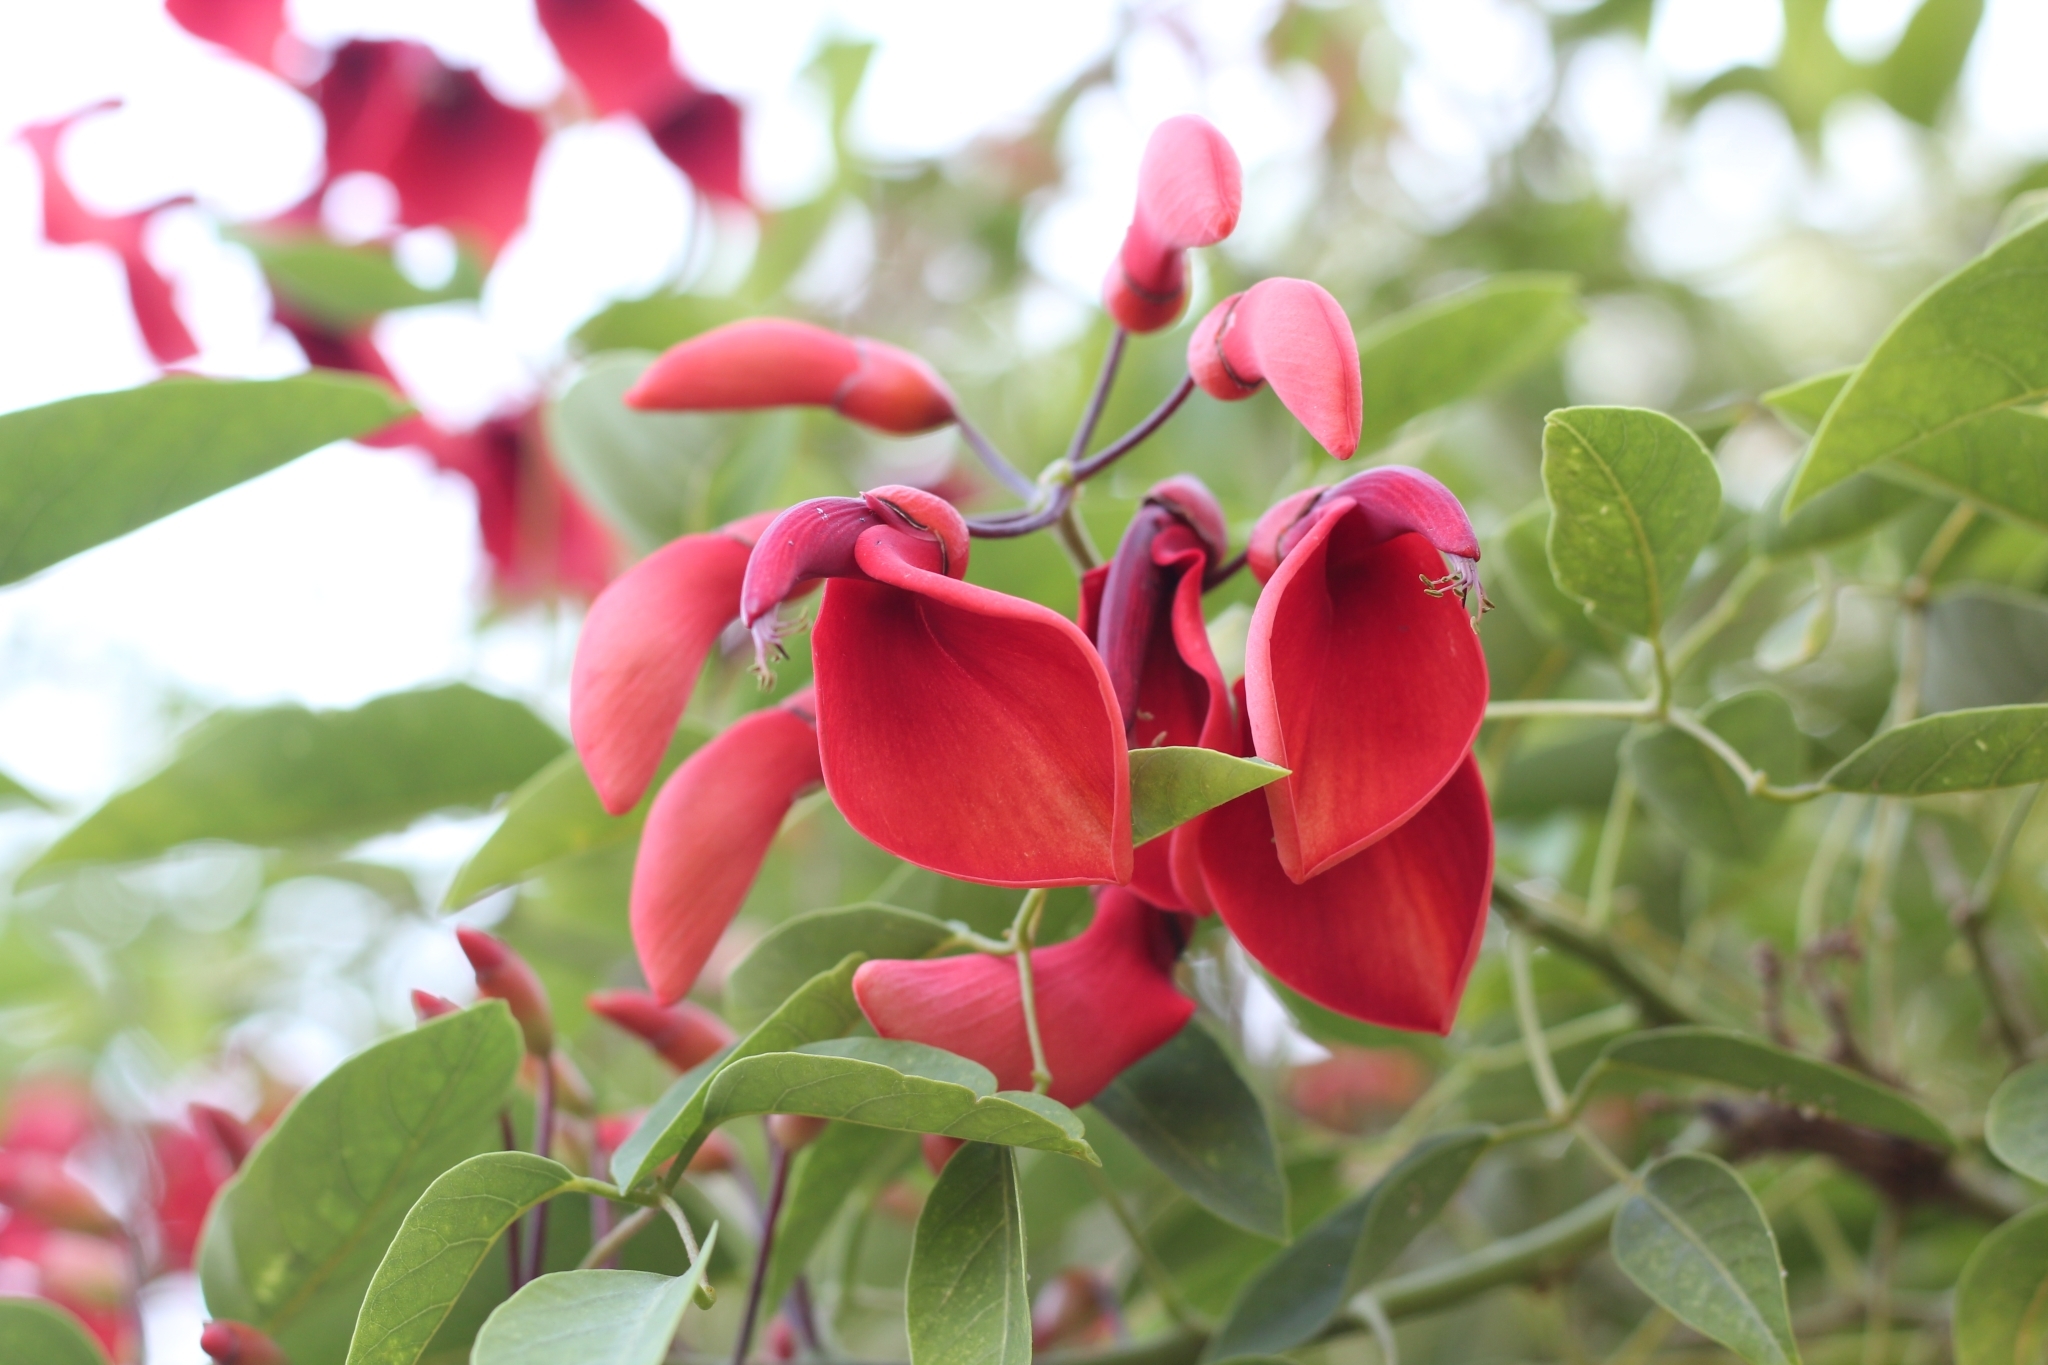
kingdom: Plantae
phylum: Tracheophyta
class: Magnoliopsida
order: Fabales
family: Fabaceae
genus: Erythrina
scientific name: Erythrina crista-galli
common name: Cockspur coral tree
